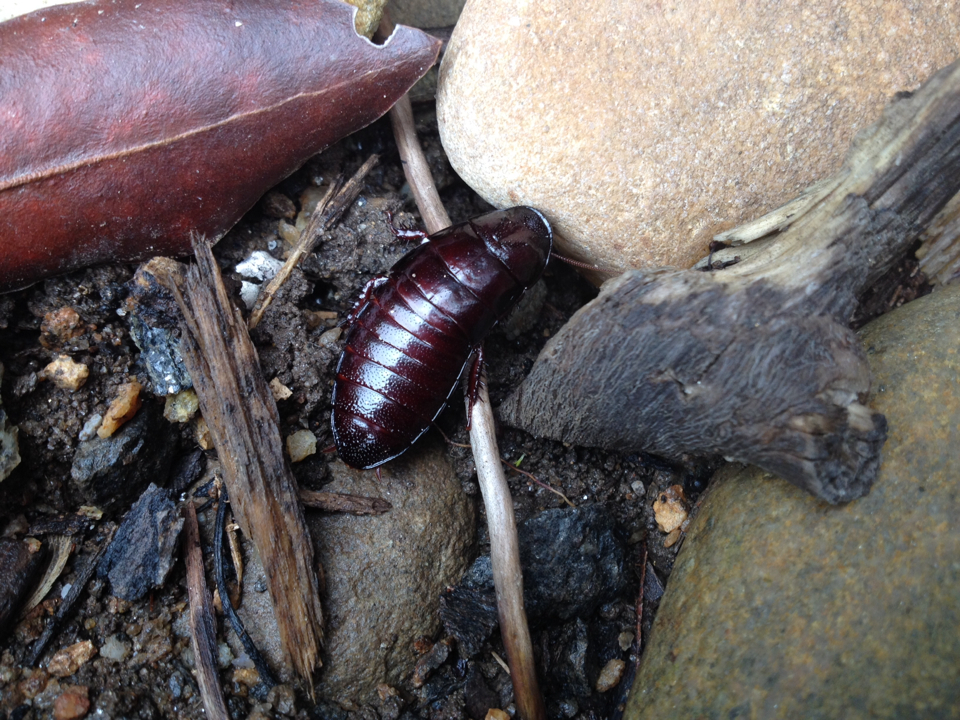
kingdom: Animalia
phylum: Arthropoda
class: Insecta
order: Blattodea
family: Cryptocercidae
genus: Cryptocercus
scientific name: Cryptocercus wrighti
